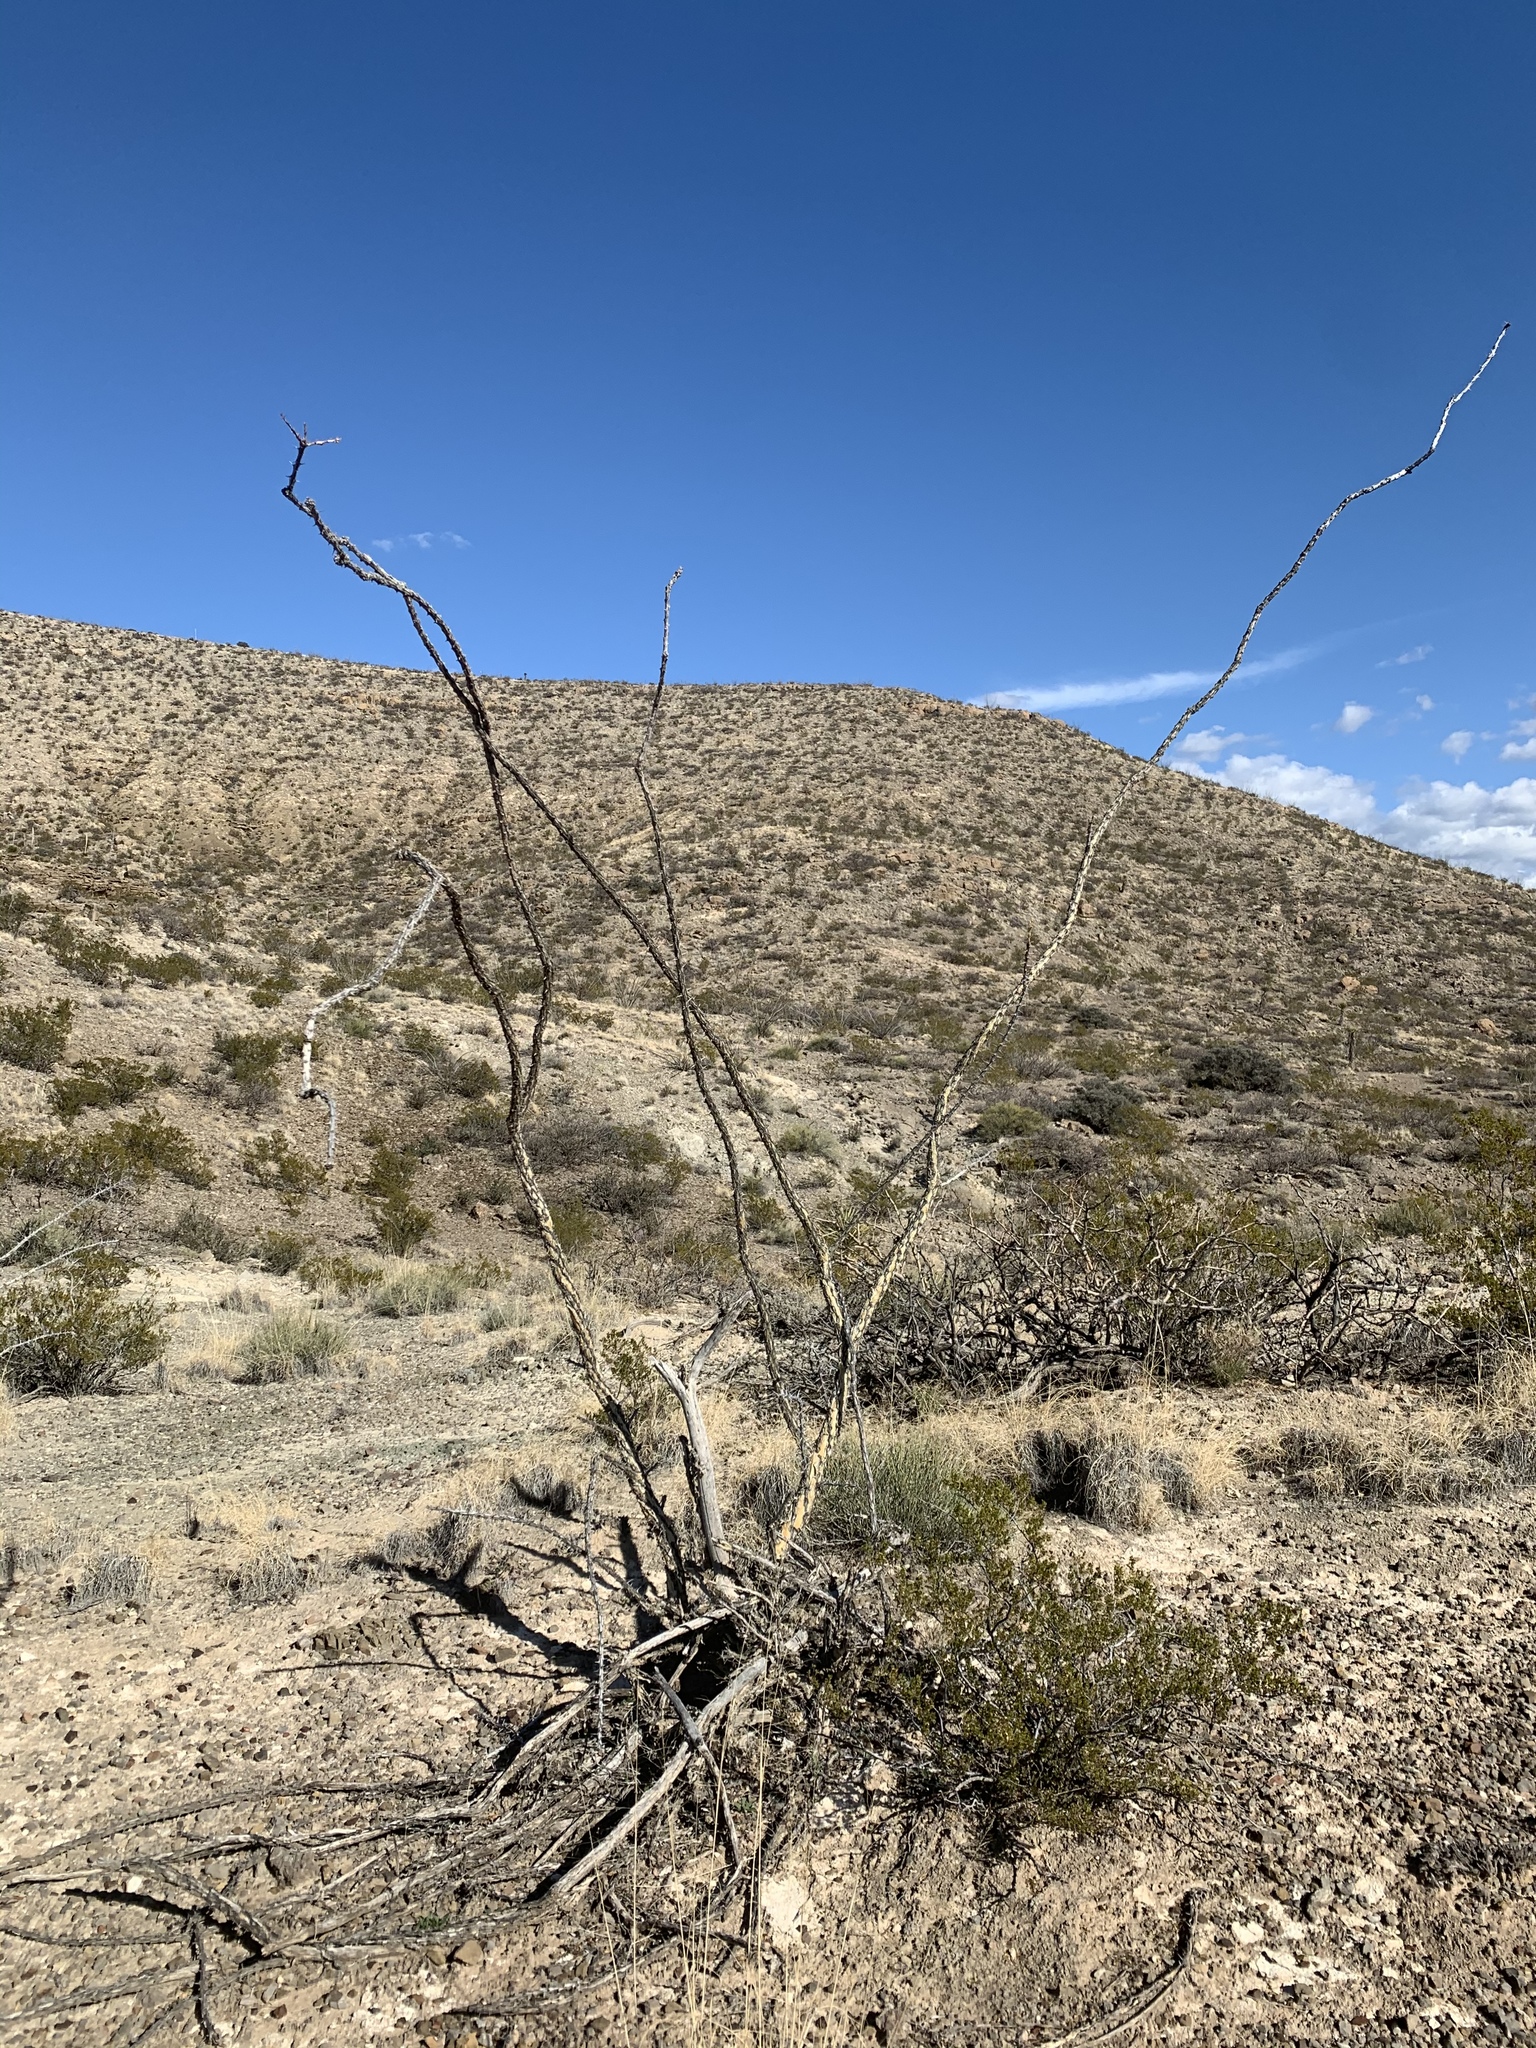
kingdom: Plantae
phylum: Tracheophyta
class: Magnoliopsida
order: Ericales
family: Fouquieriaceae
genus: Fouquieria
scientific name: Fouquieria splendens
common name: Vine-cactus
